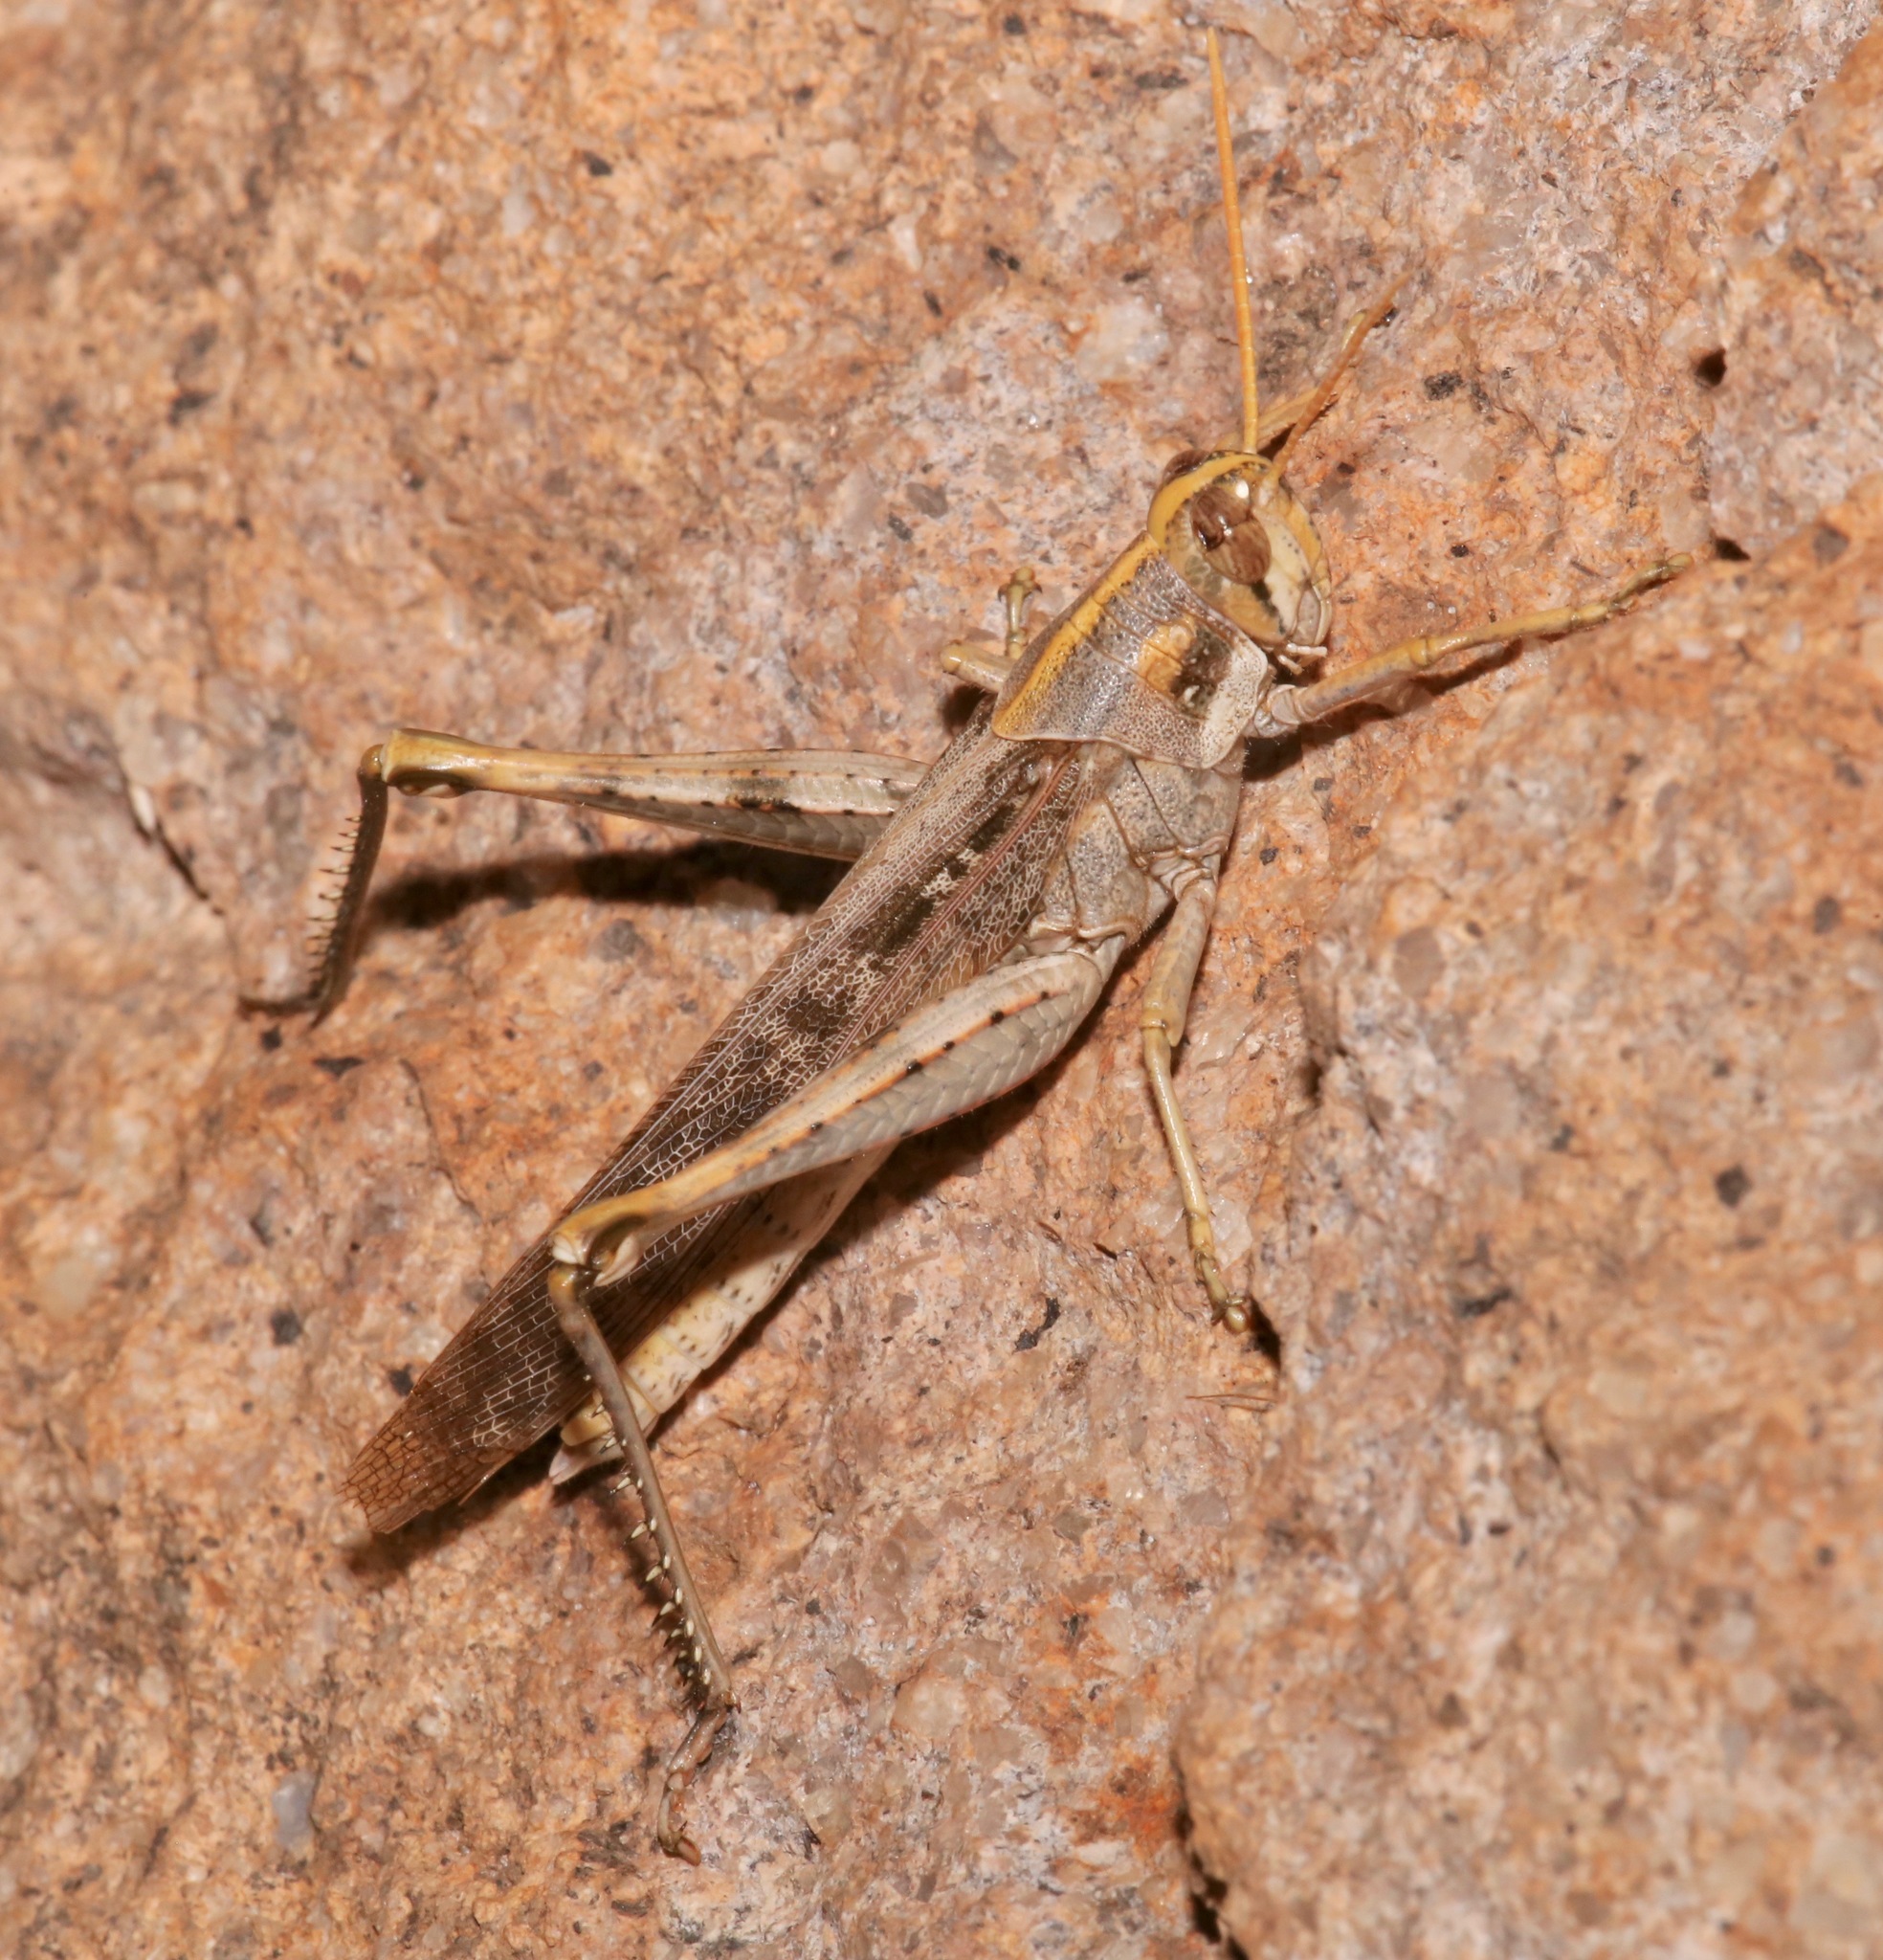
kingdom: Animalia
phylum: Arthropoda
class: Insecta
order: Orthoptera
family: Acrididae
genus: Schistocerca
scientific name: Schistocerca nitens
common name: Vagrant grasshopper
